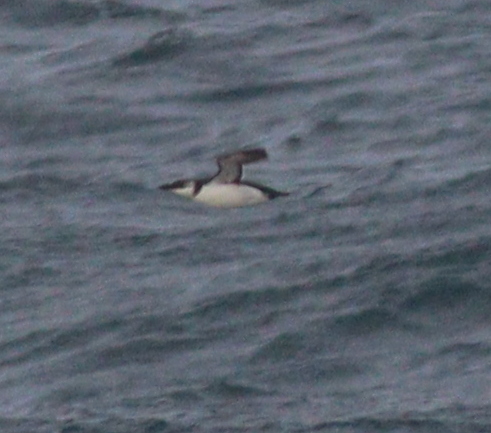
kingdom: Animalia
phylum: Chordata
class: Aves
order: Charadriiformes
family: Alcidae
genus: Alca
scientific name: Alca torda
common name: Razorbill
